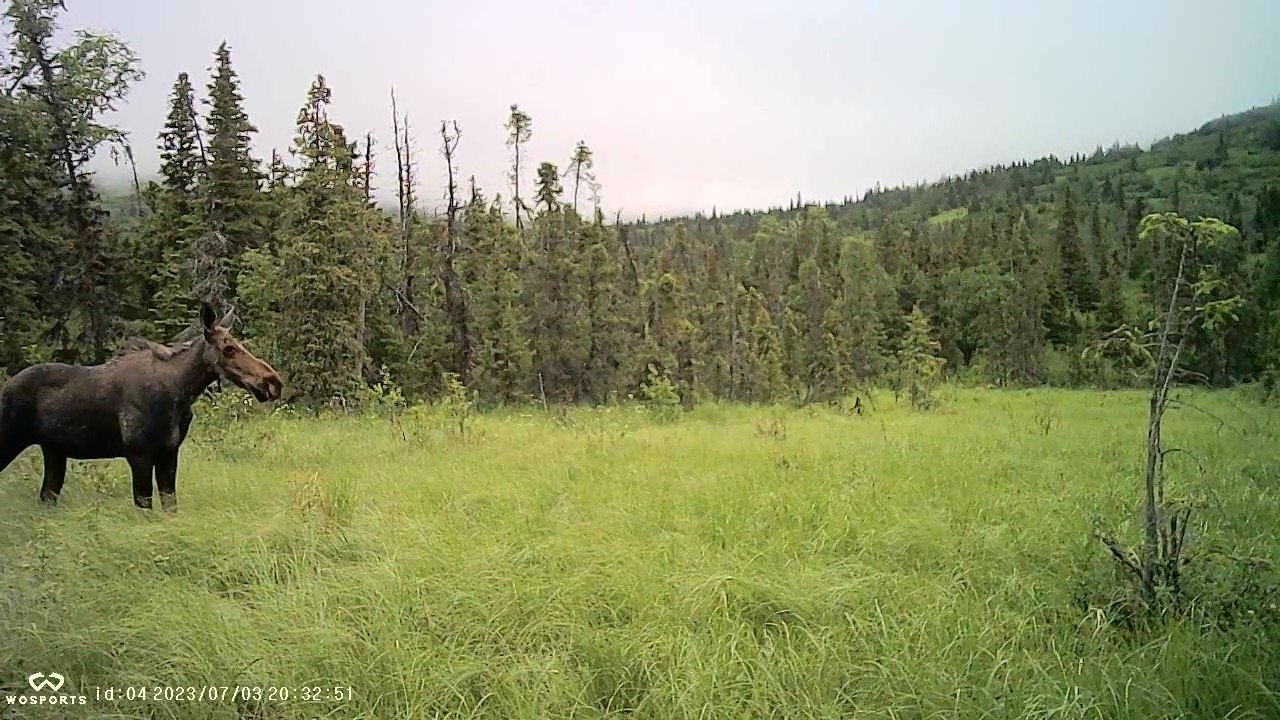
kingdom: Animalia
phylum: Chordata
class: Mammalia
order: Artiodactyla
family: Cervidae
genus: Alces
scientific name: Alces alces
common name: Moose
